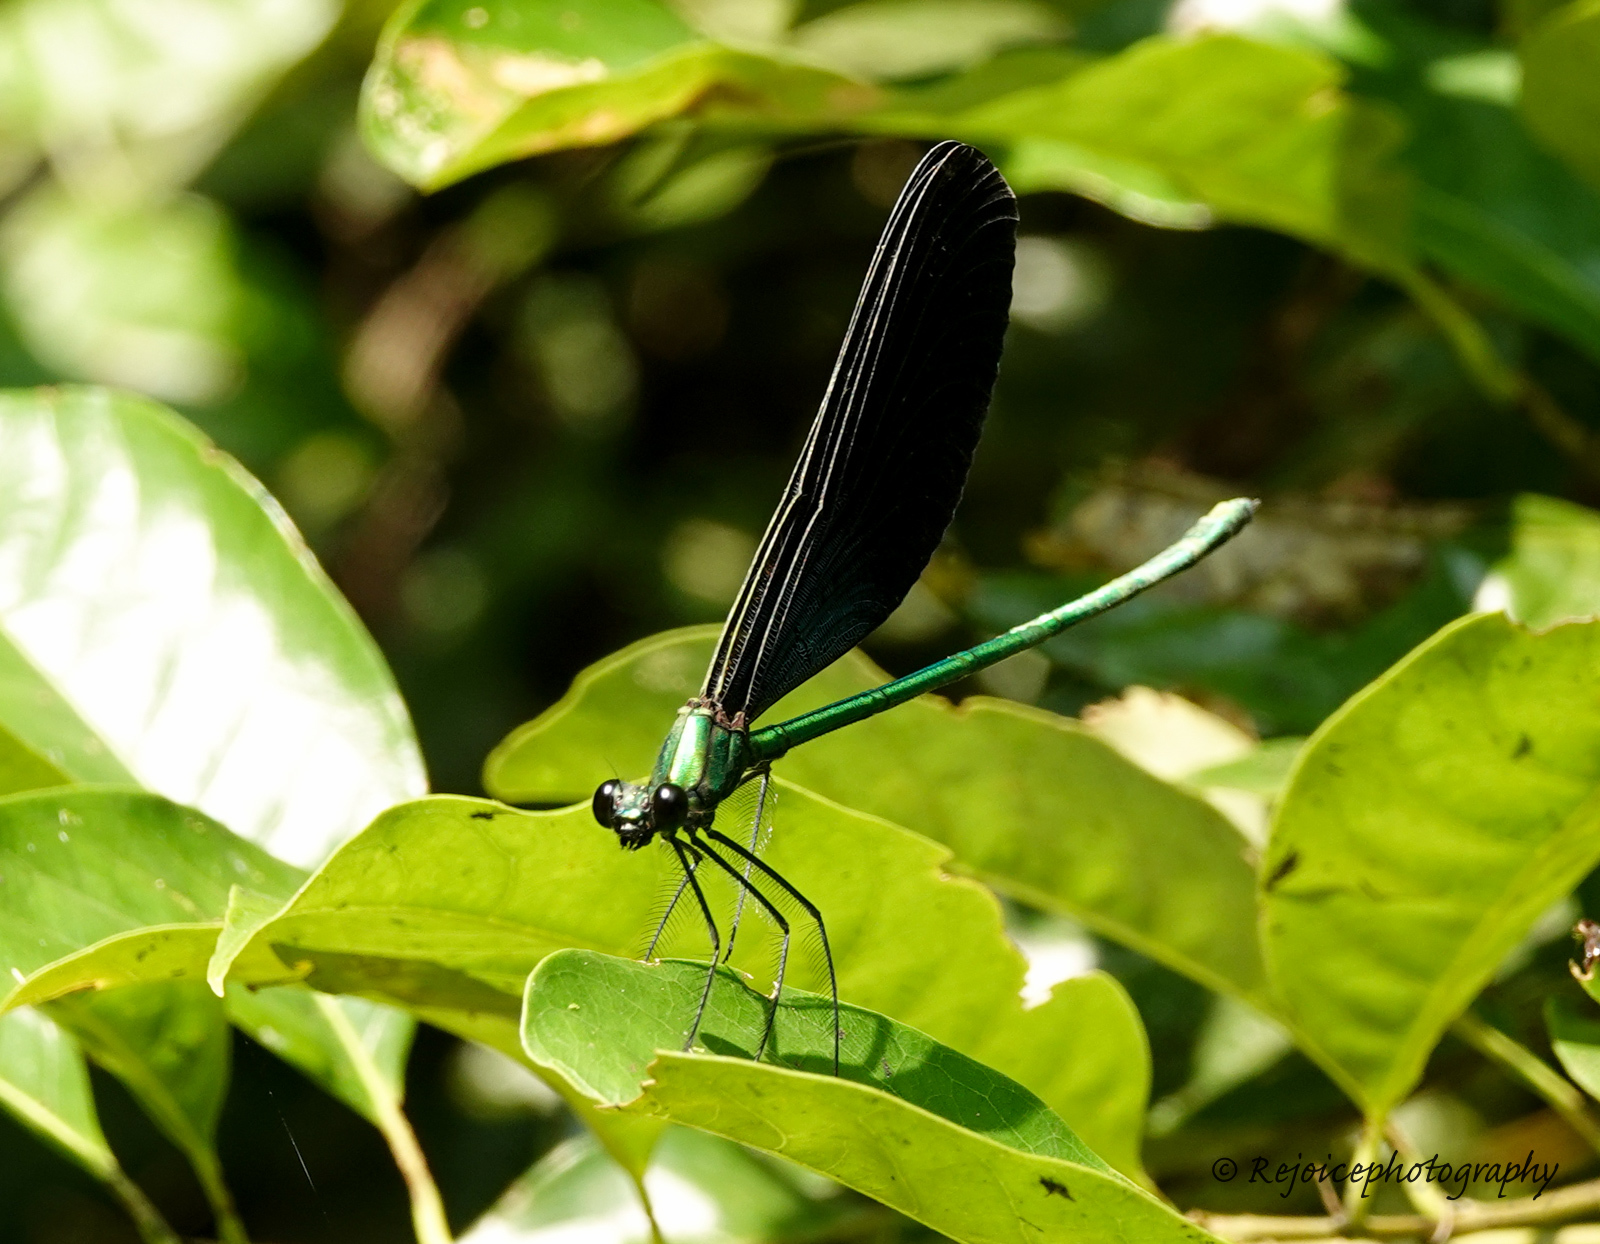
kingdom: Animalia
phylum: Arthropoda
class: Insecta
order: Odonata
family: Calopterygidae
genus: Matrona
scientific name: Matrona nigripectus
